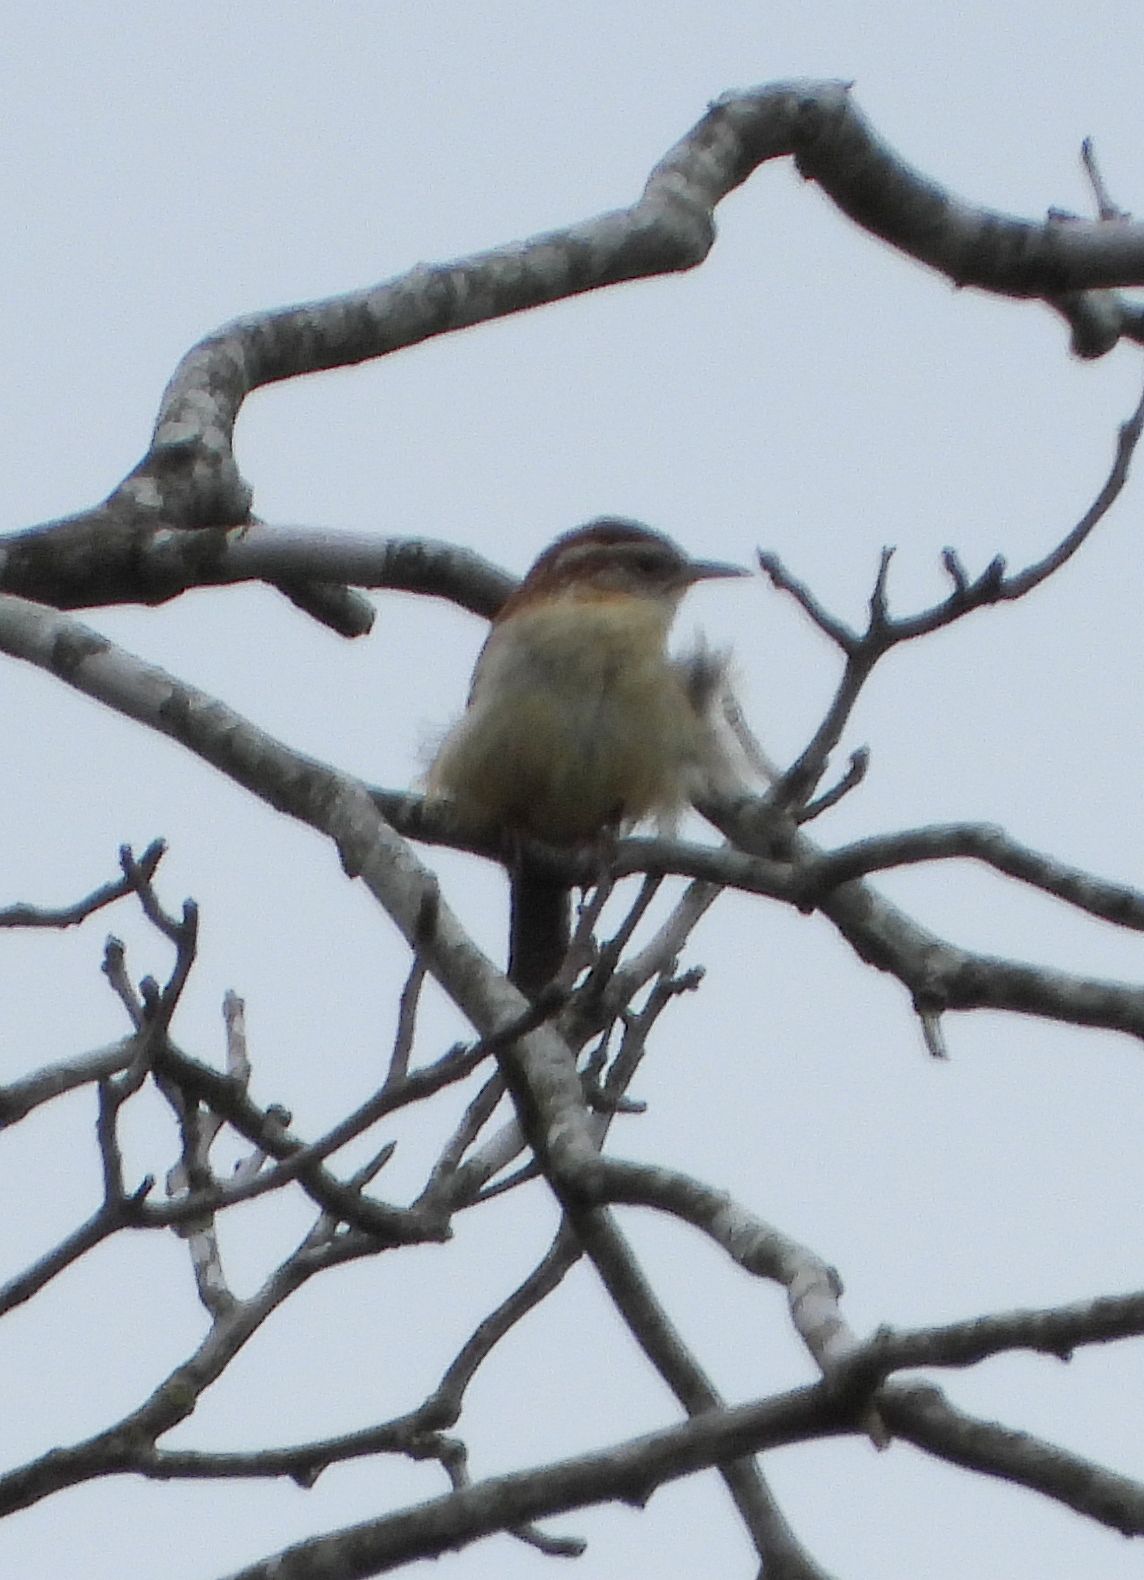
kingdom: Animalia
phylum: Chordata
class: Aves
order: Passeriformes
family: Troglodytidae
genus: Thryothorus
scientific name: Thryothorus ludovicianus
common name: Carolina wren
